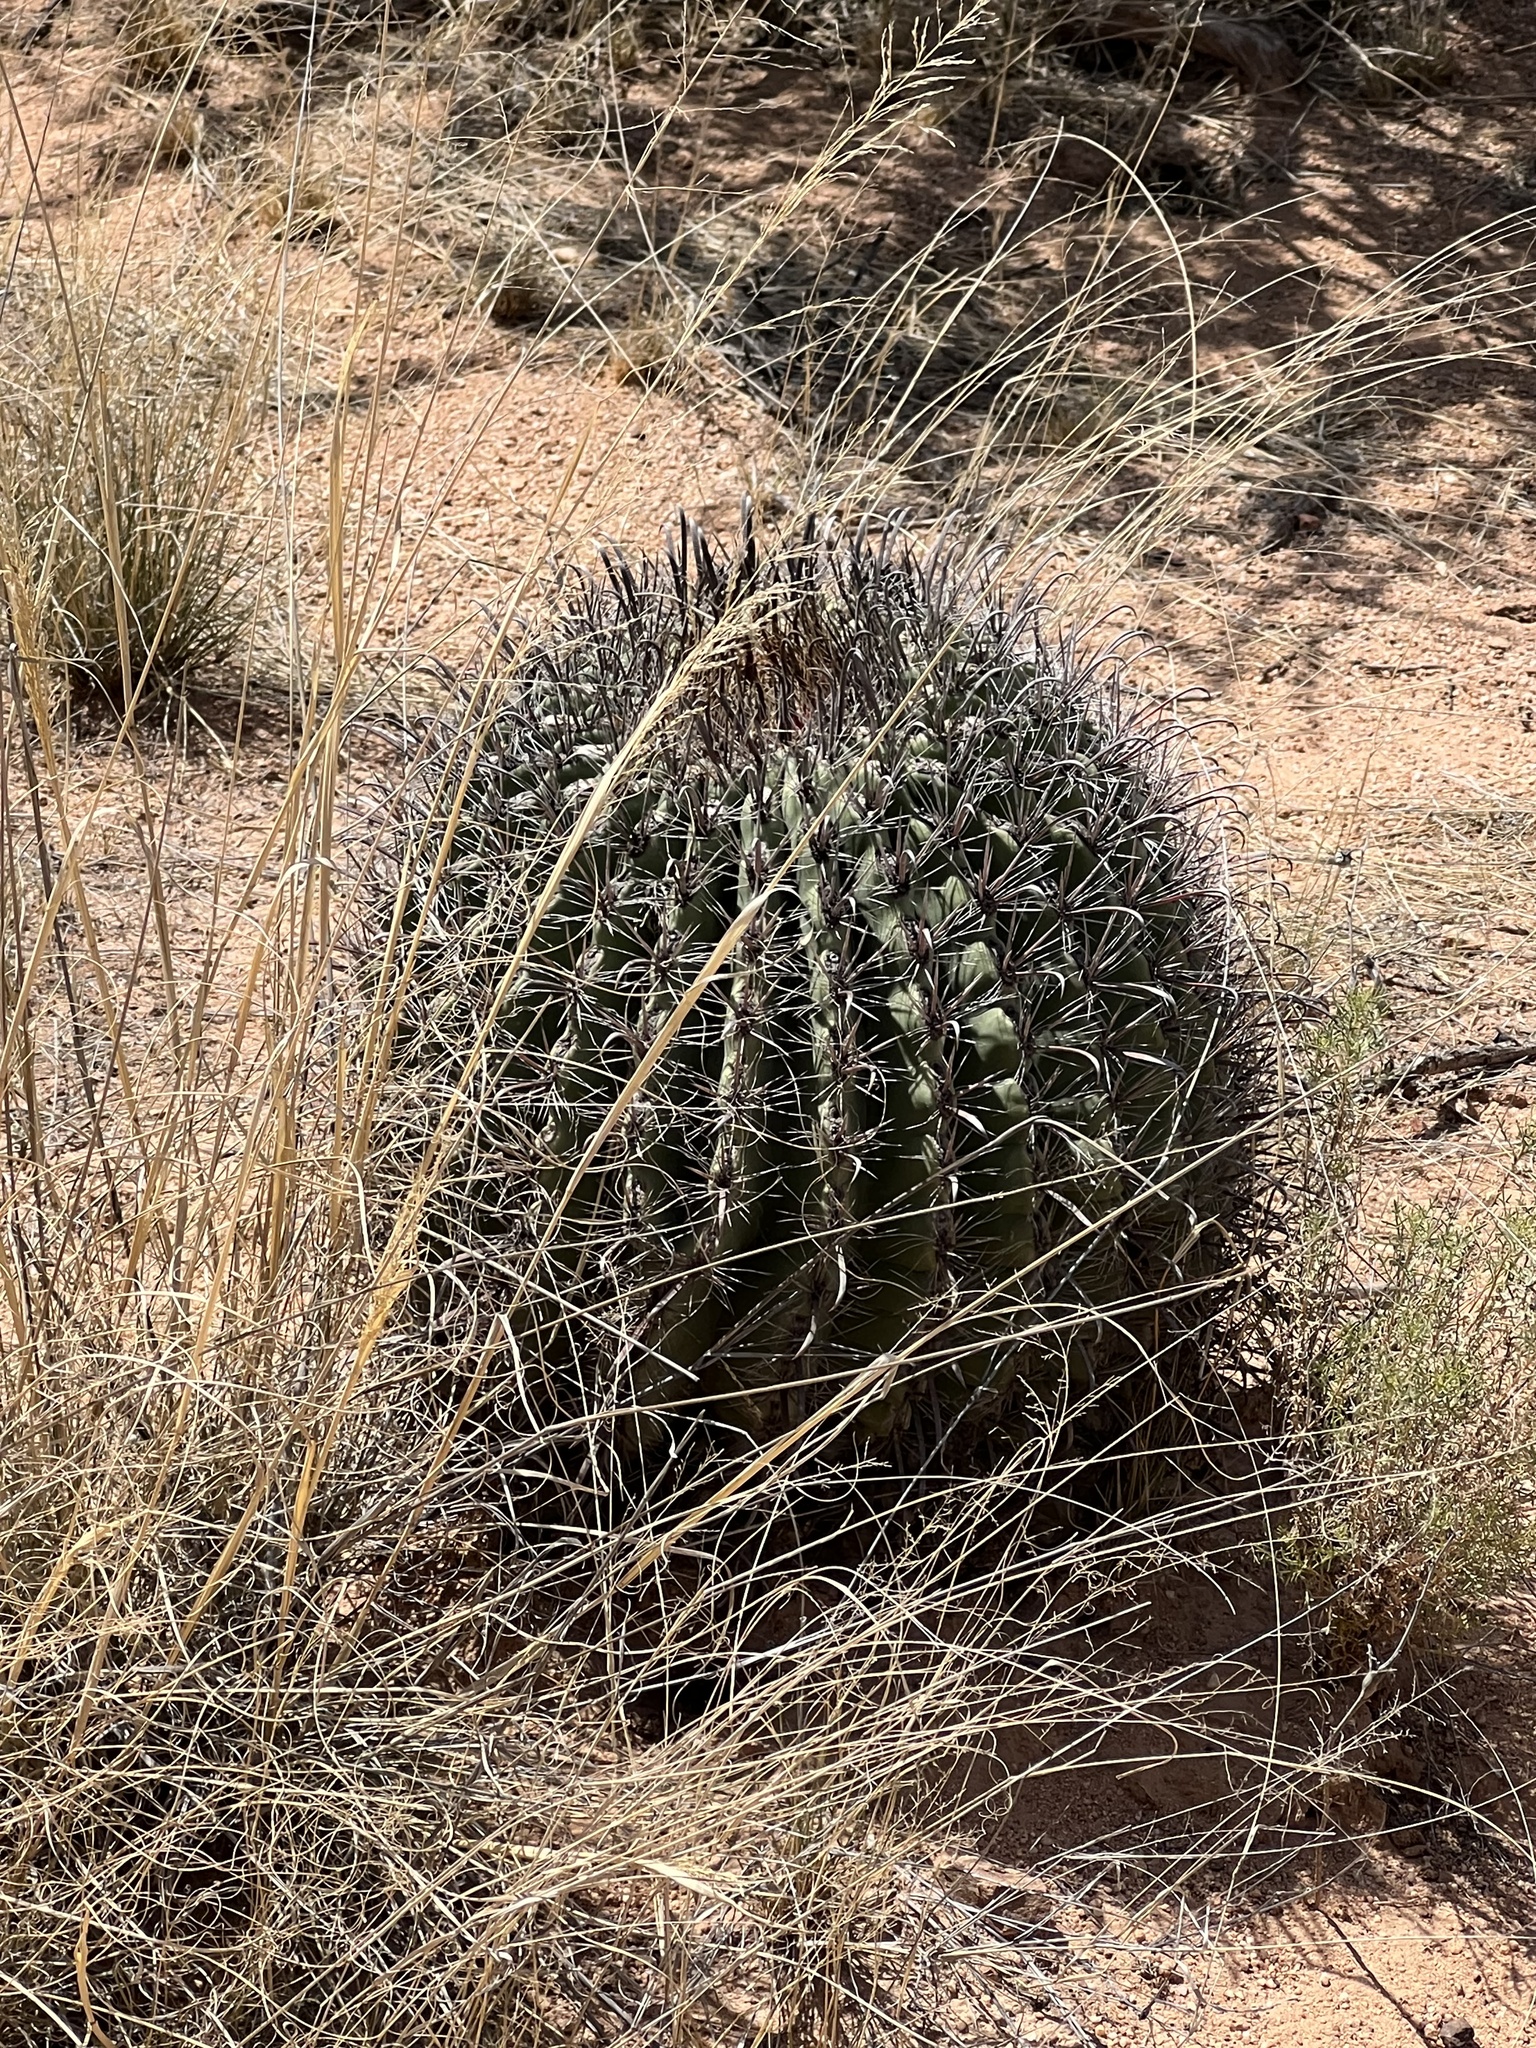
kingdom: Plantae
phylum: Tracheophyta
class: Magnoliopsida
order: Caryophyllales
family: Cactaceae
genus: Ferocactus
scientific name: Ferocactus wislizeni
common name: Candy barrel cactus
